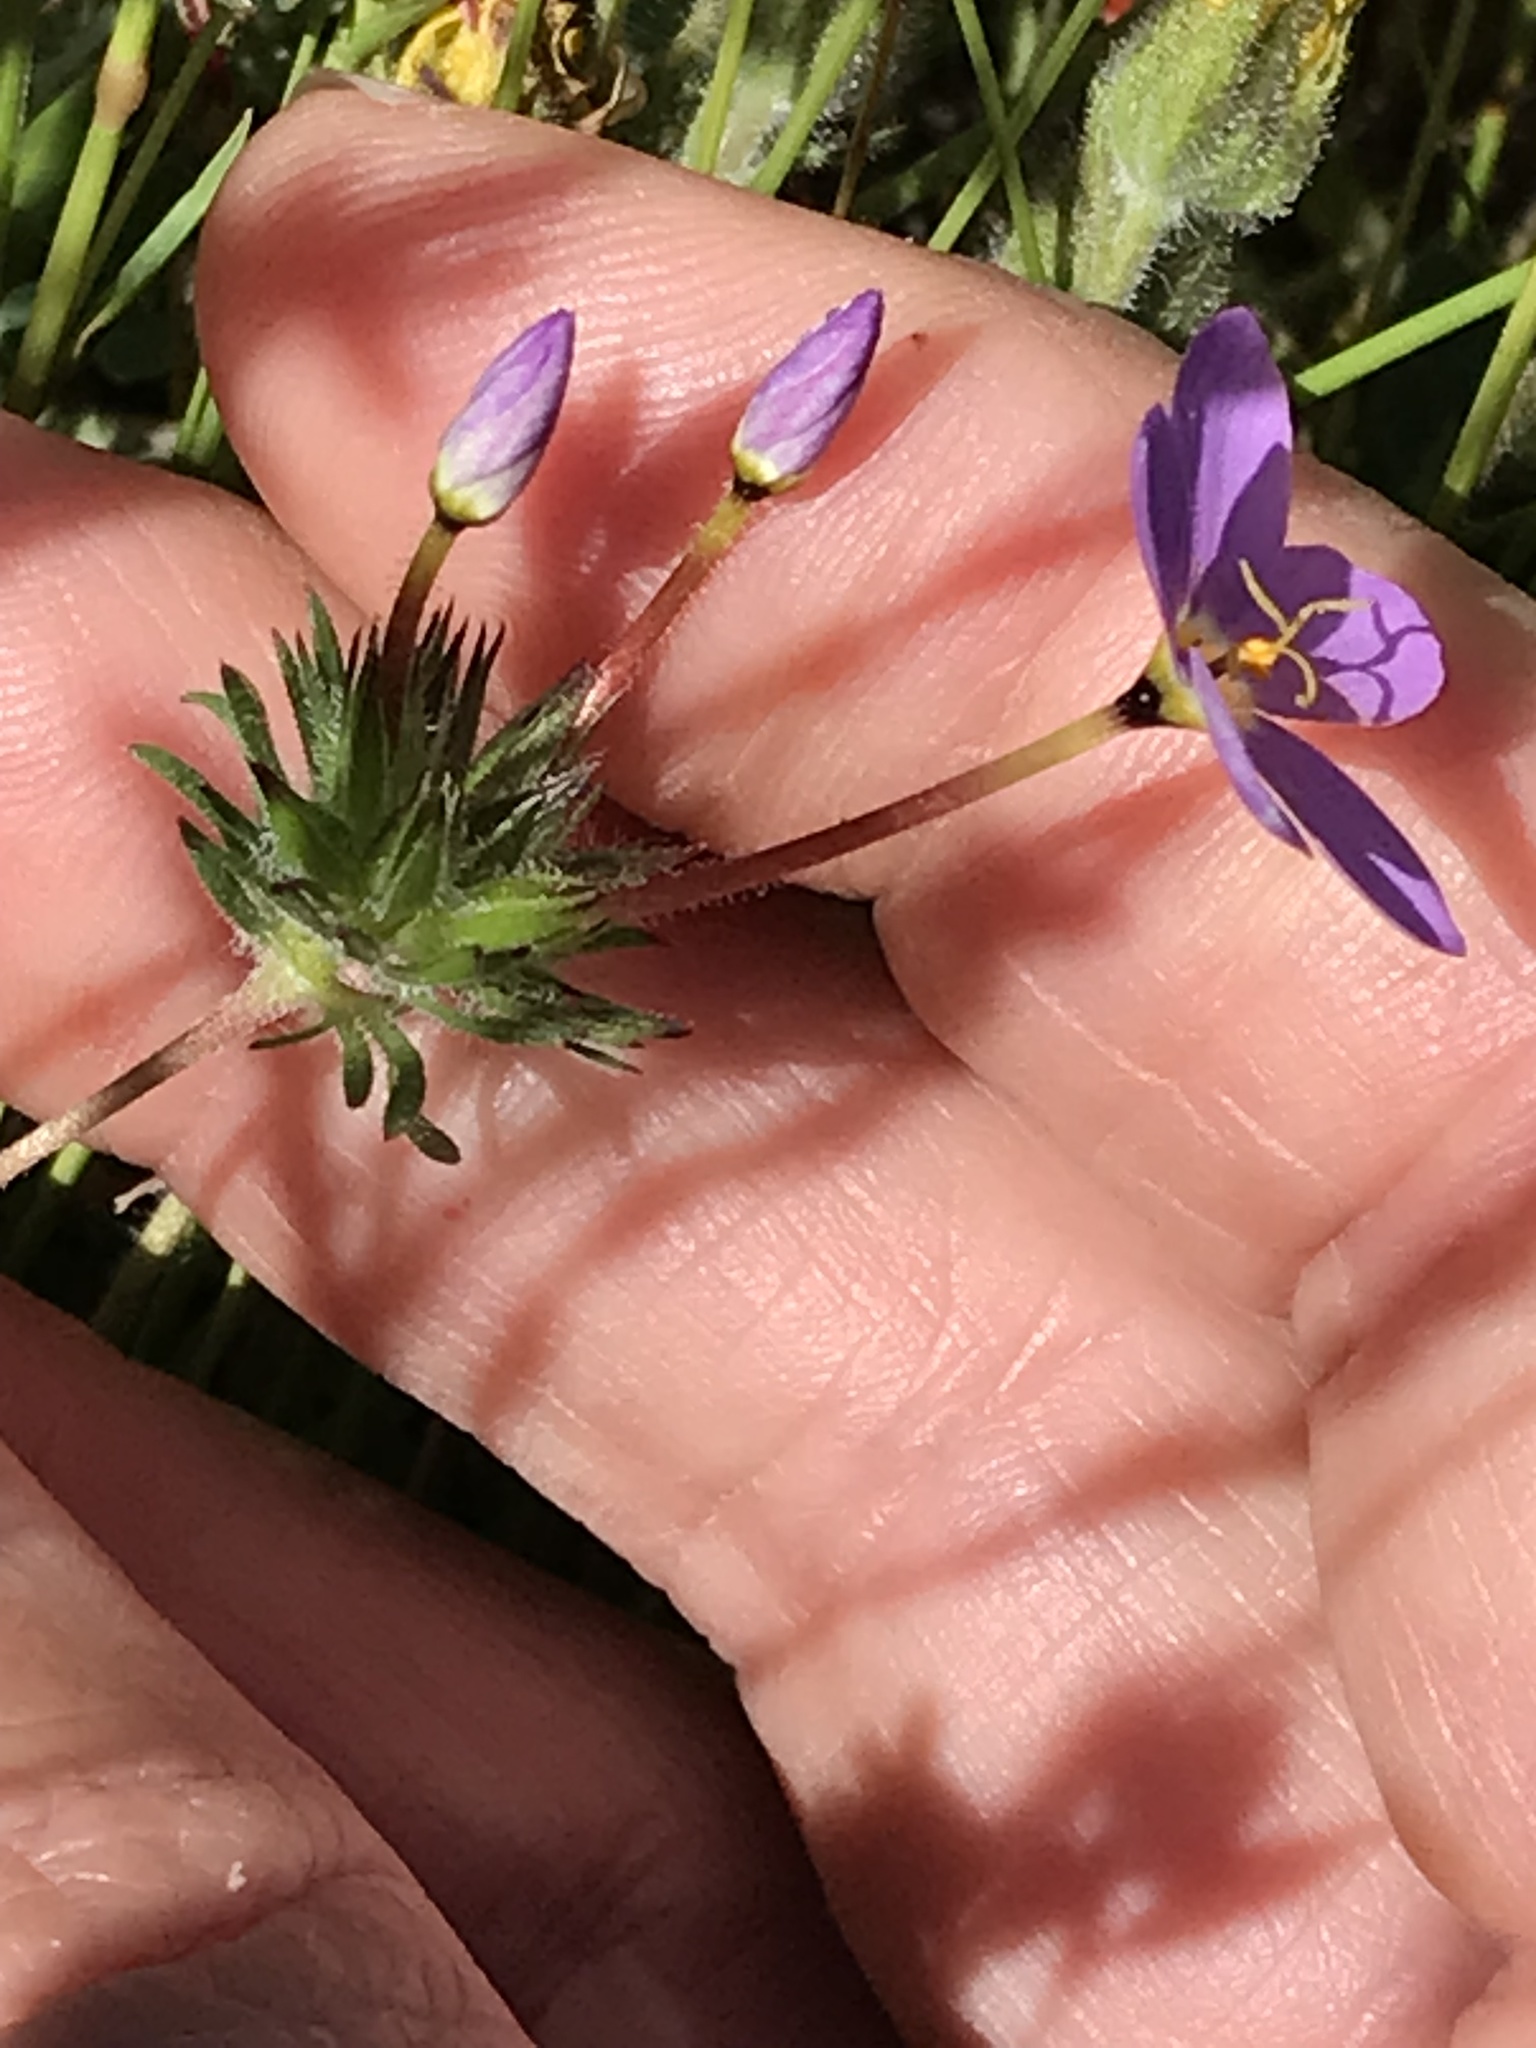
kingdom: Plantae
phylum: Tracheophyta
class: Magnoliopsida
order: Ericales
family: Polemoniaceae
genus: Leptosiphon
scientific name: Leptosiphon androsaceus
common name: False babystars
